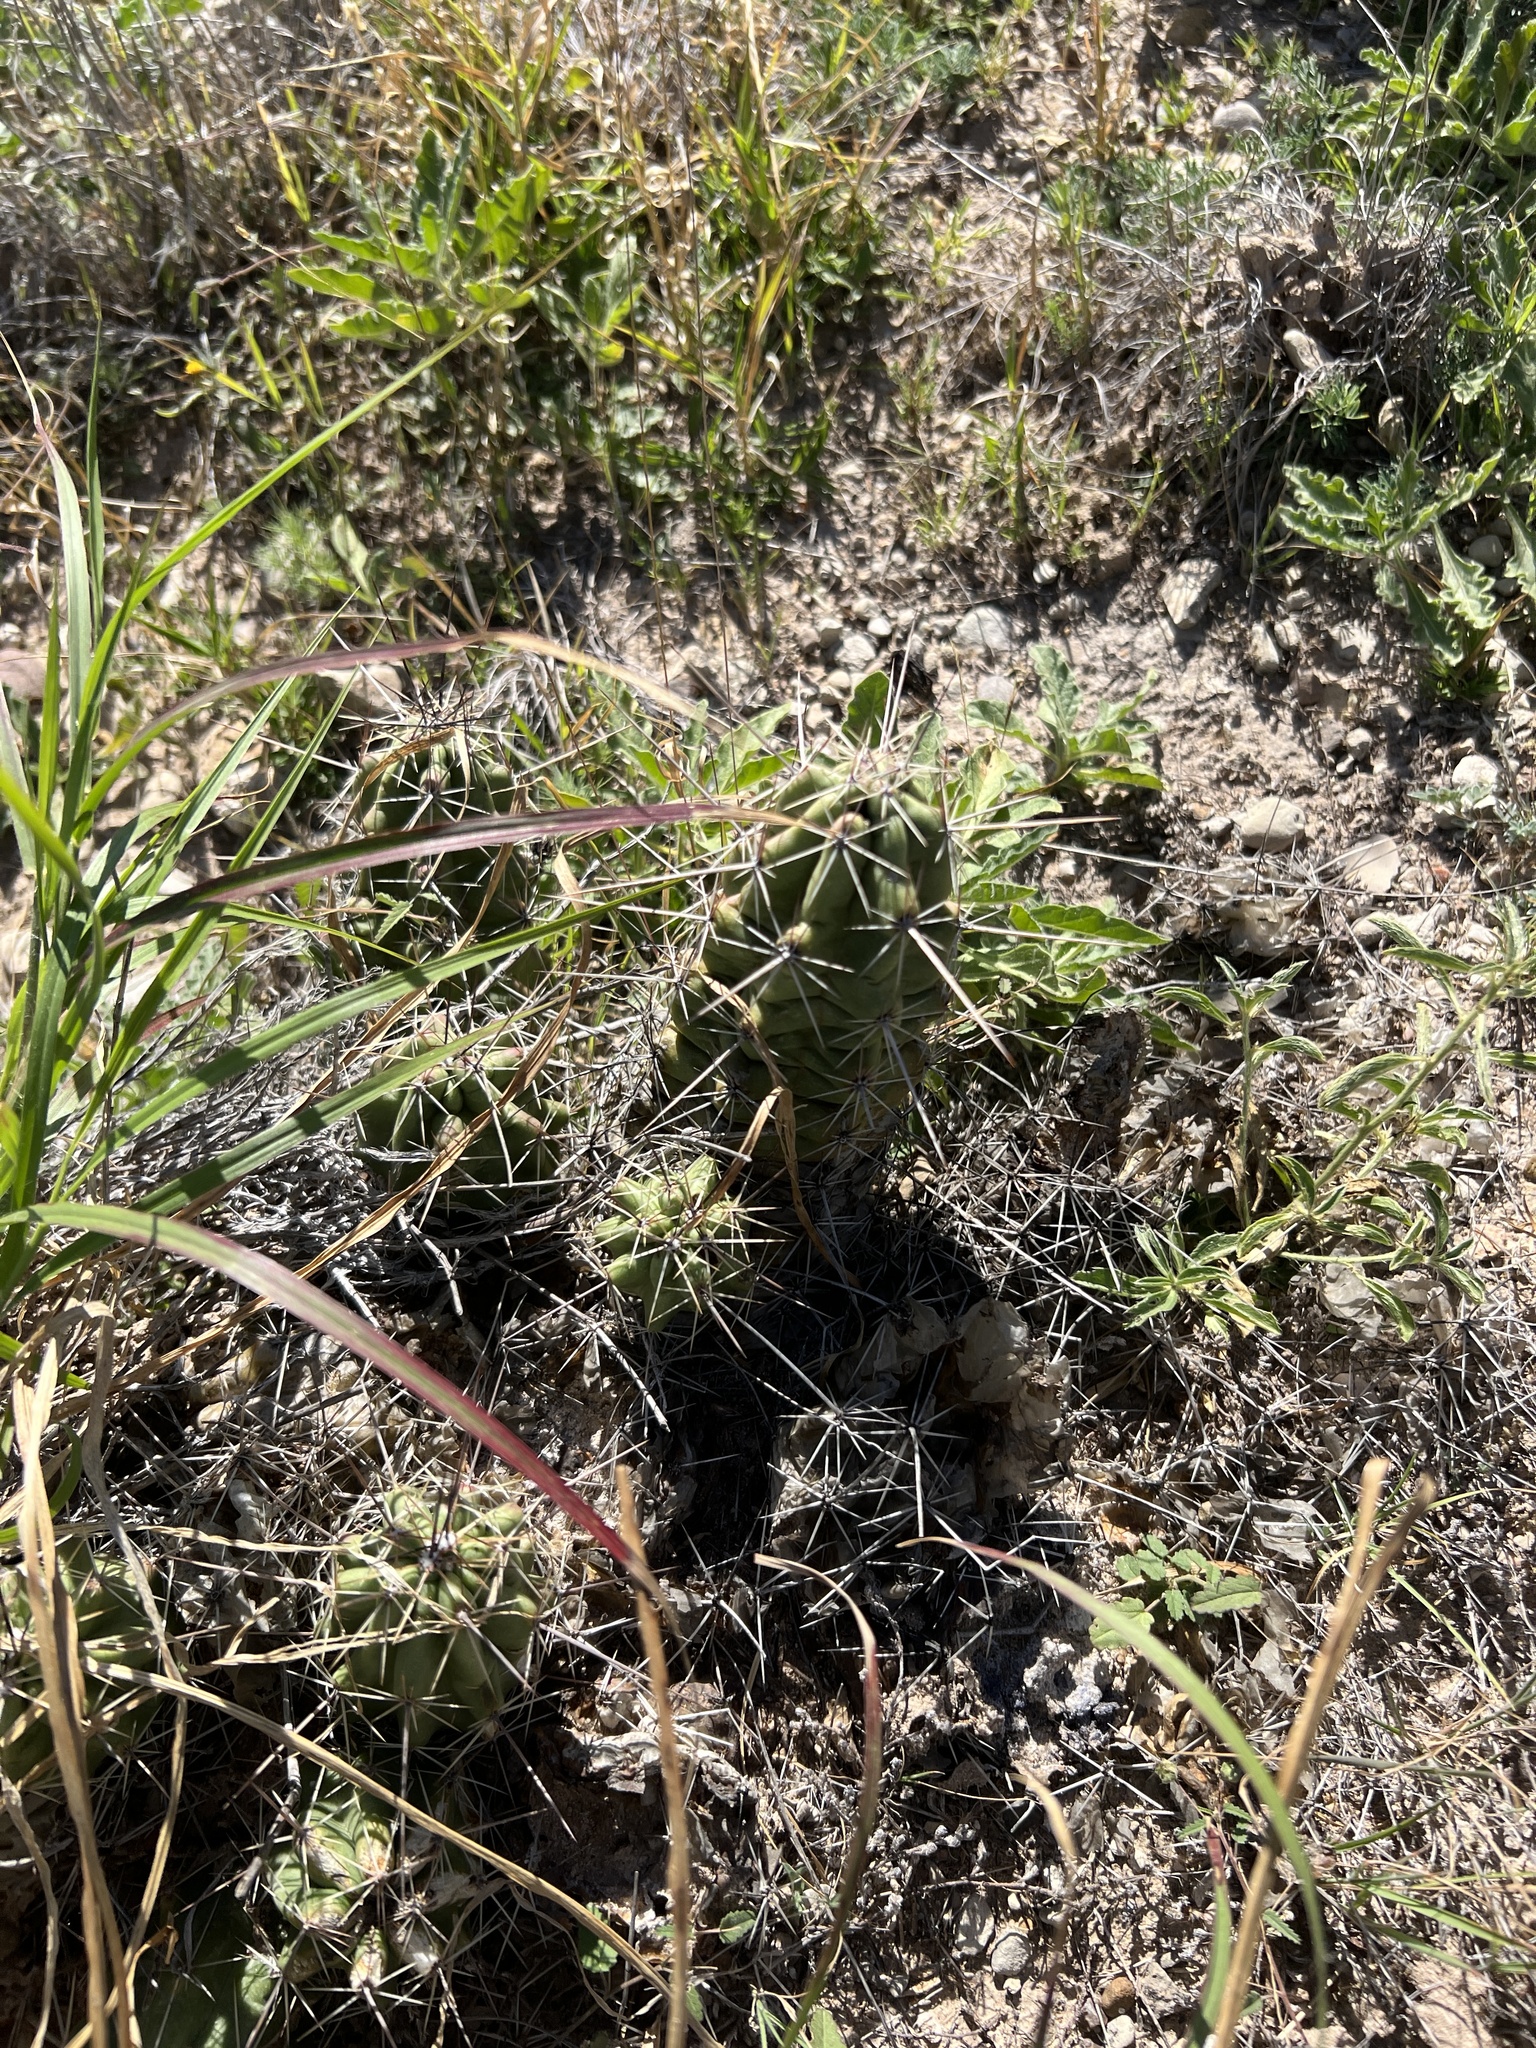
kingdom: Plantae
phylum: Tracheophyta
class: Magnoliopsida
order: Caryophyllales
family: Cactaceae
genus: Echinocereus
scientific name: Echinocereus enneacanthus
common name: Pitaya
